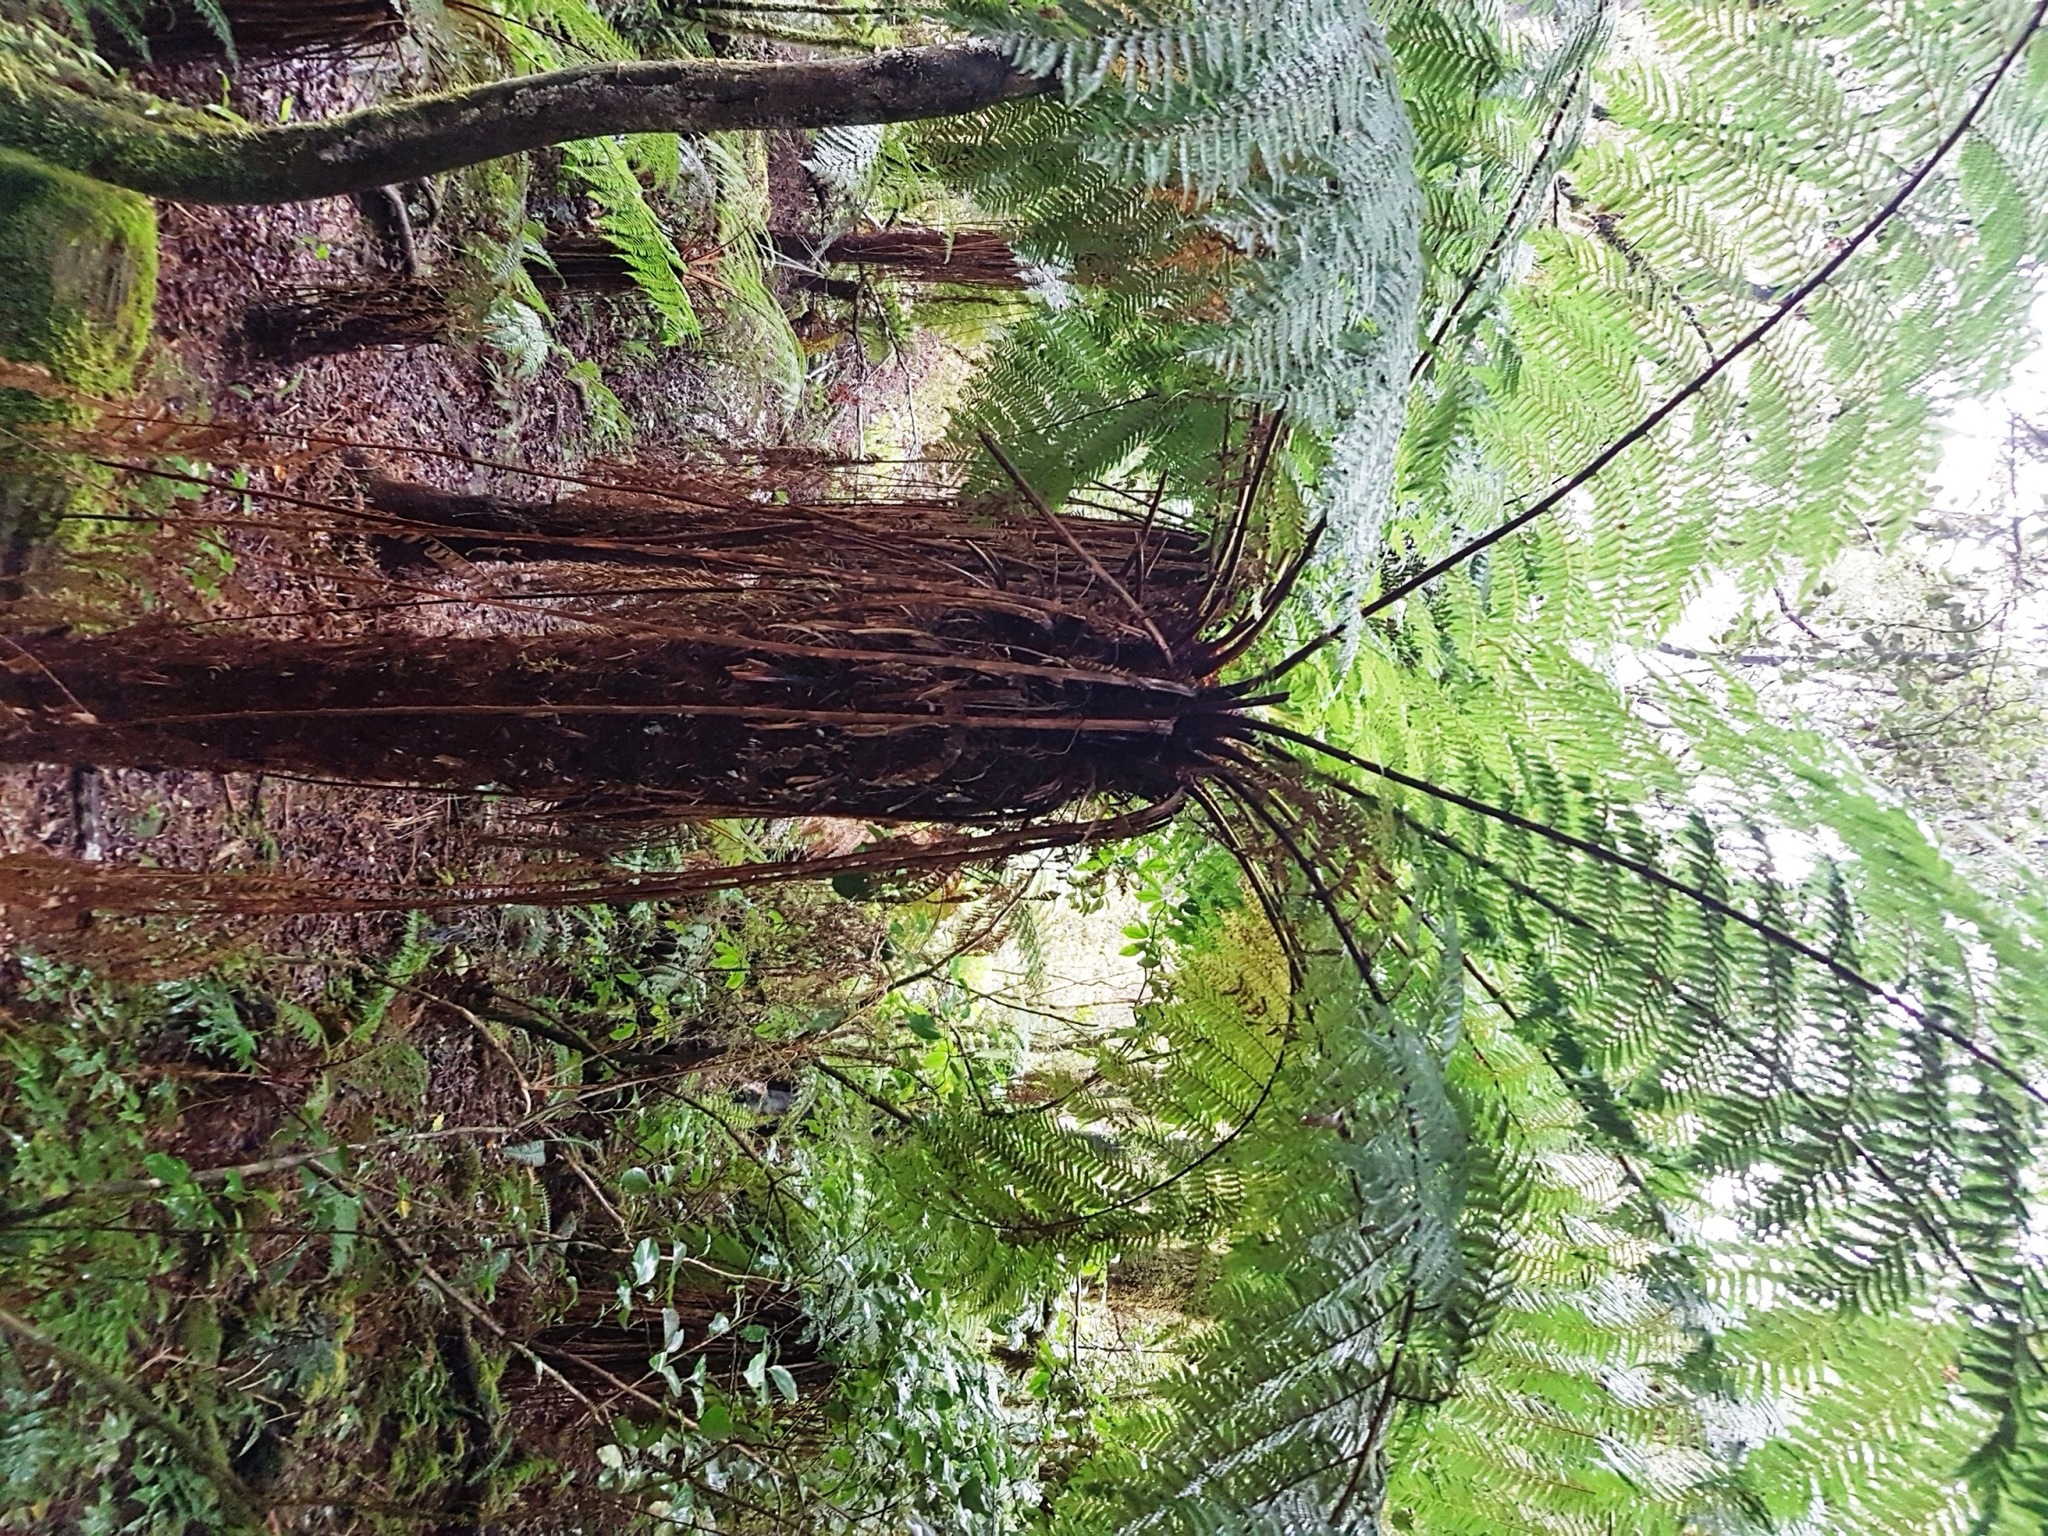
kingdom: Plantae
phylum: Tracheophyta
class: Polypodiopsida
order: Cyatheales
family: Cyatheaceae
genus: Alsophila
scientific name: Alsophila smithii
